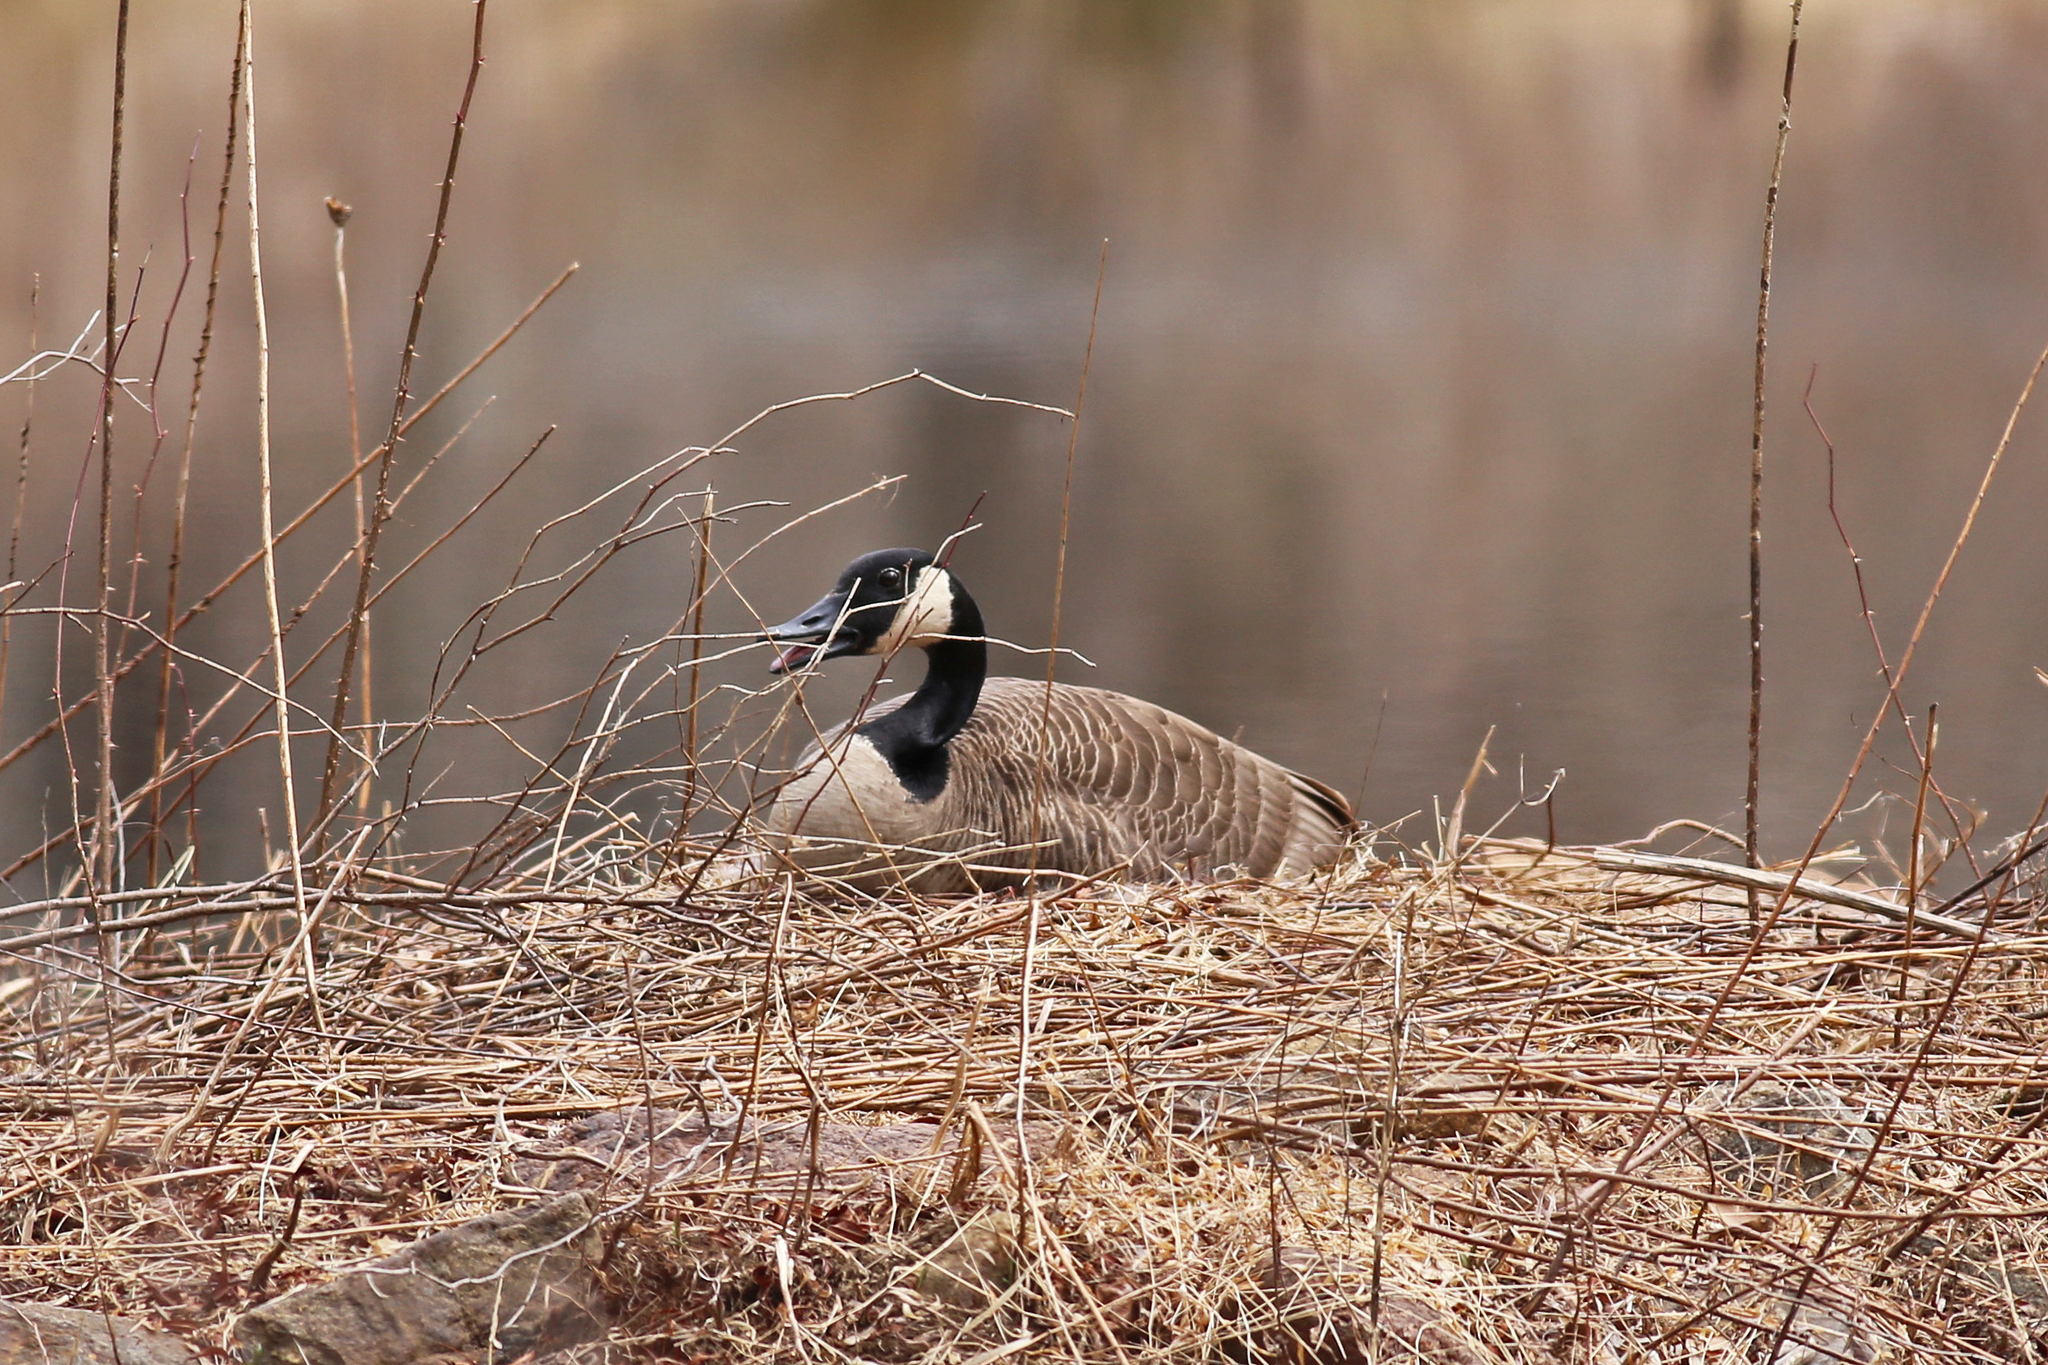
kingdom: Animalia
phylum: Chordata
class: Aves
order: Anseriformes
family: Anatidae
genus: Branta
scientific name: Branta canadensis
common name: Canada goose
